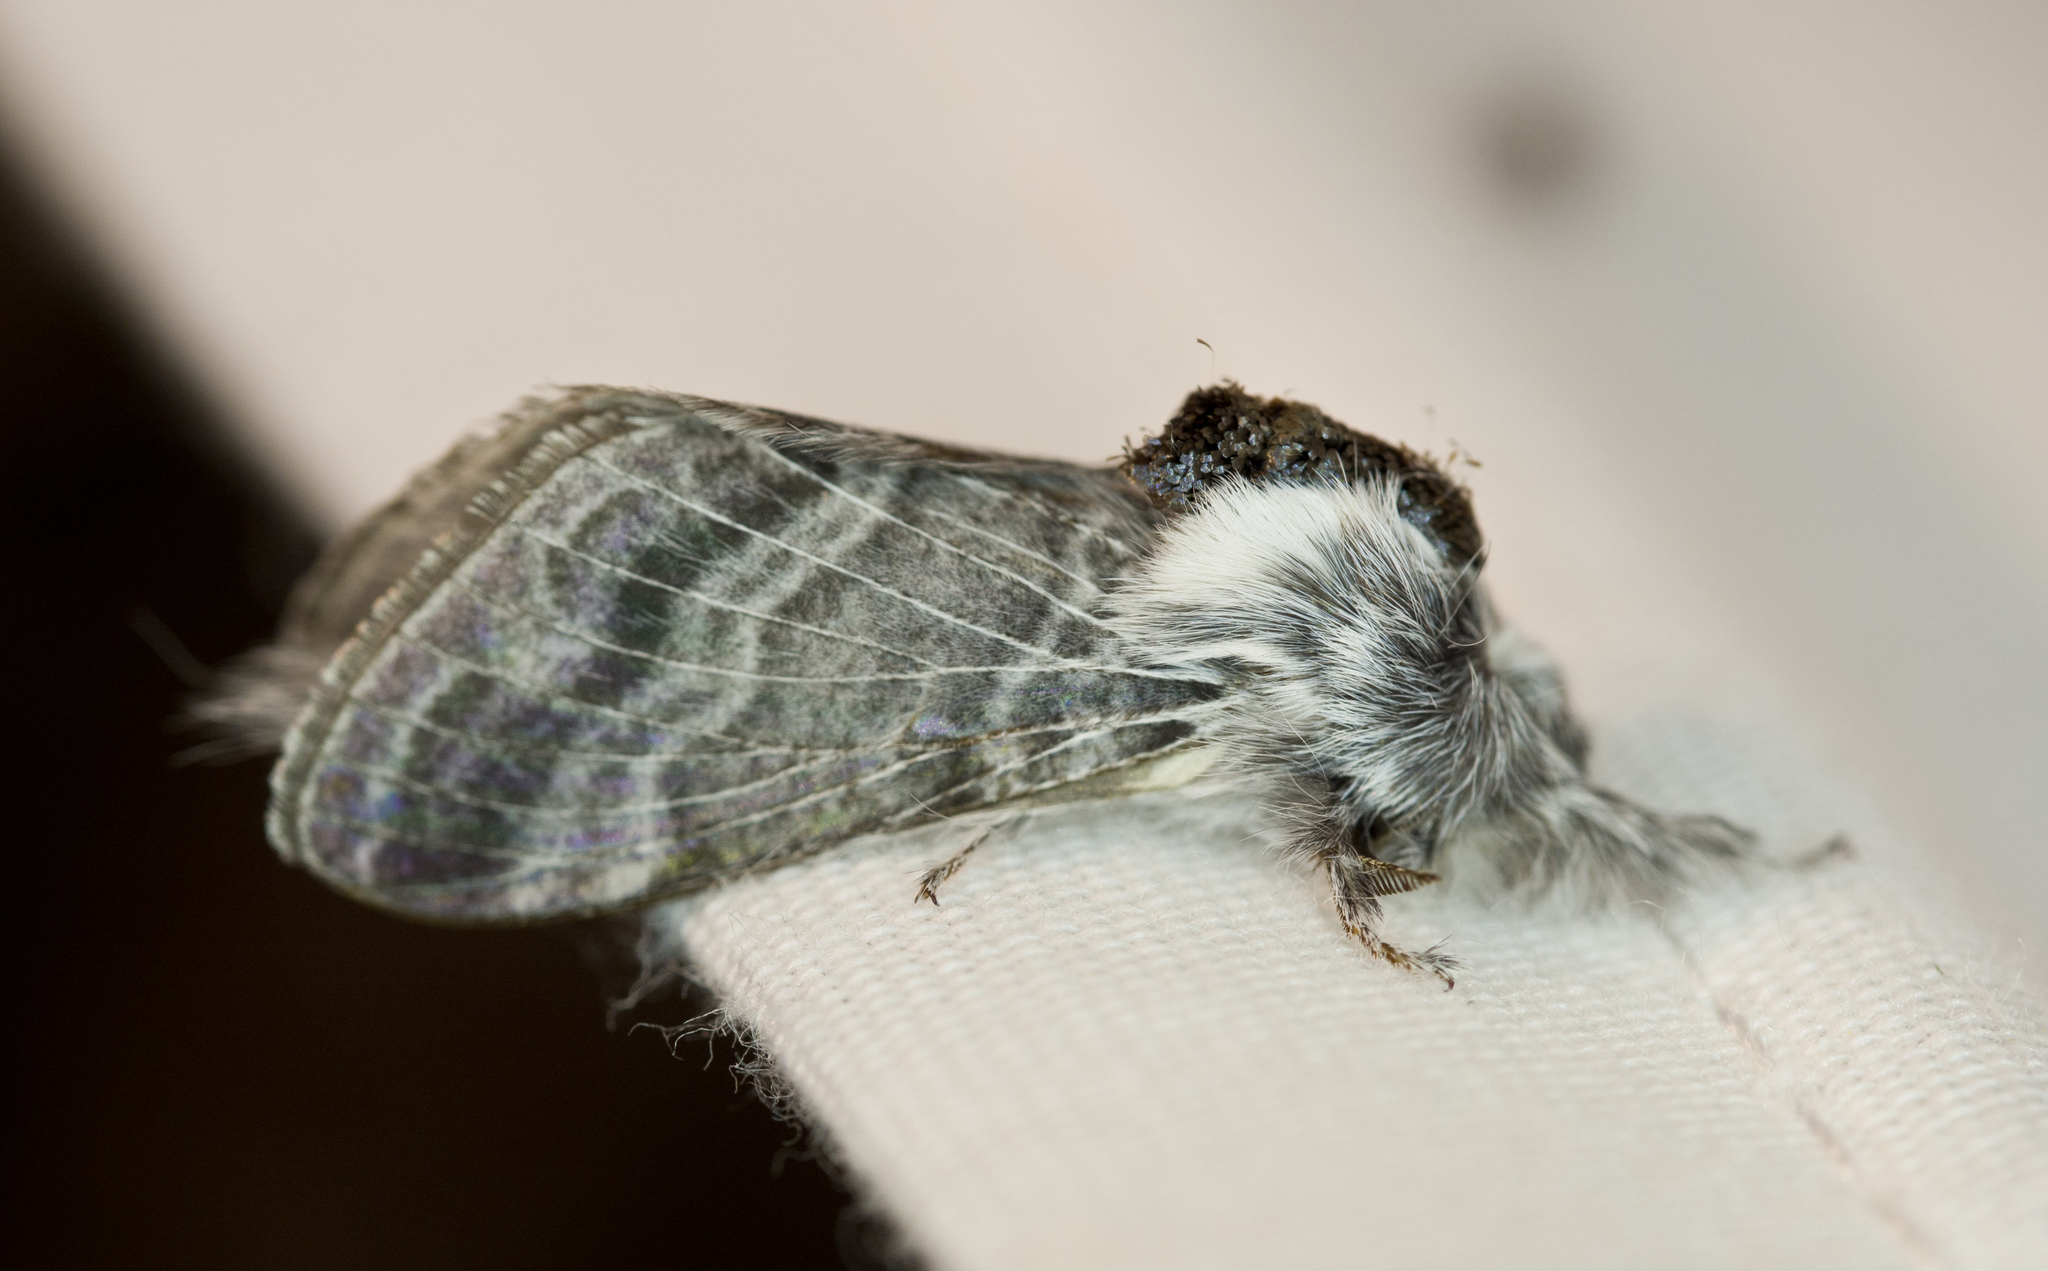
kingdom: Animalia
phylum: Arthropoda
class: Insecta
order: Lepidoptera
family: Lasiocampidae
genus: Tolype
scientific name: Tolype glenwoodi
